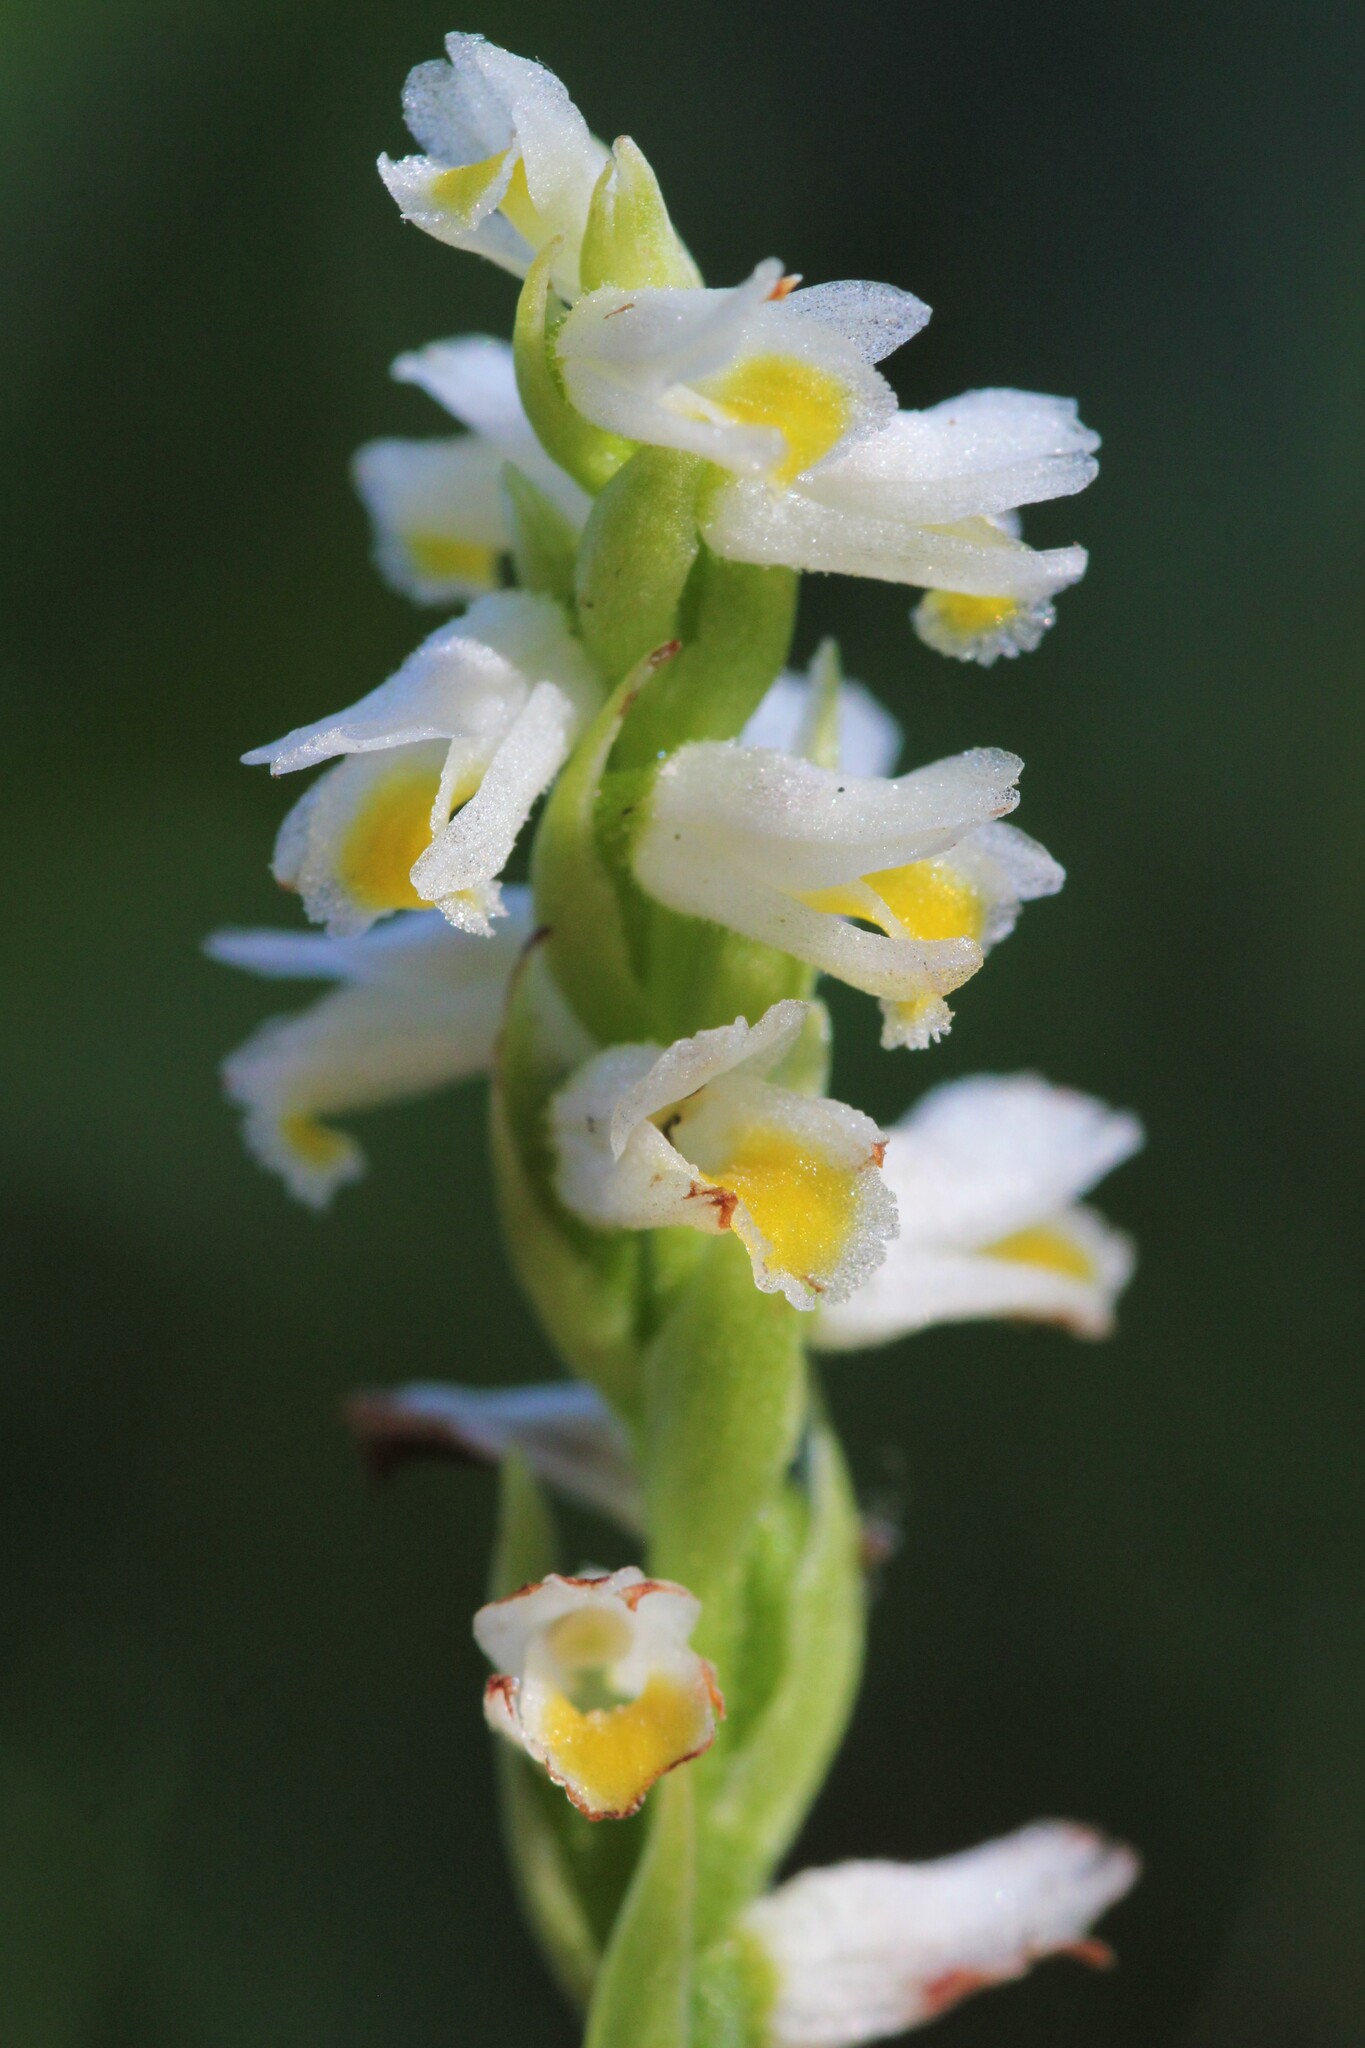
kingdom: Plantae
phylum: Tracheophyta
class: Liliopsida
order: Asparagales
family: Orchidaceae
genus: Spiranthes
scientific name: Spiranthes lucida
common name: Broad-leaved ladies'-tresses
